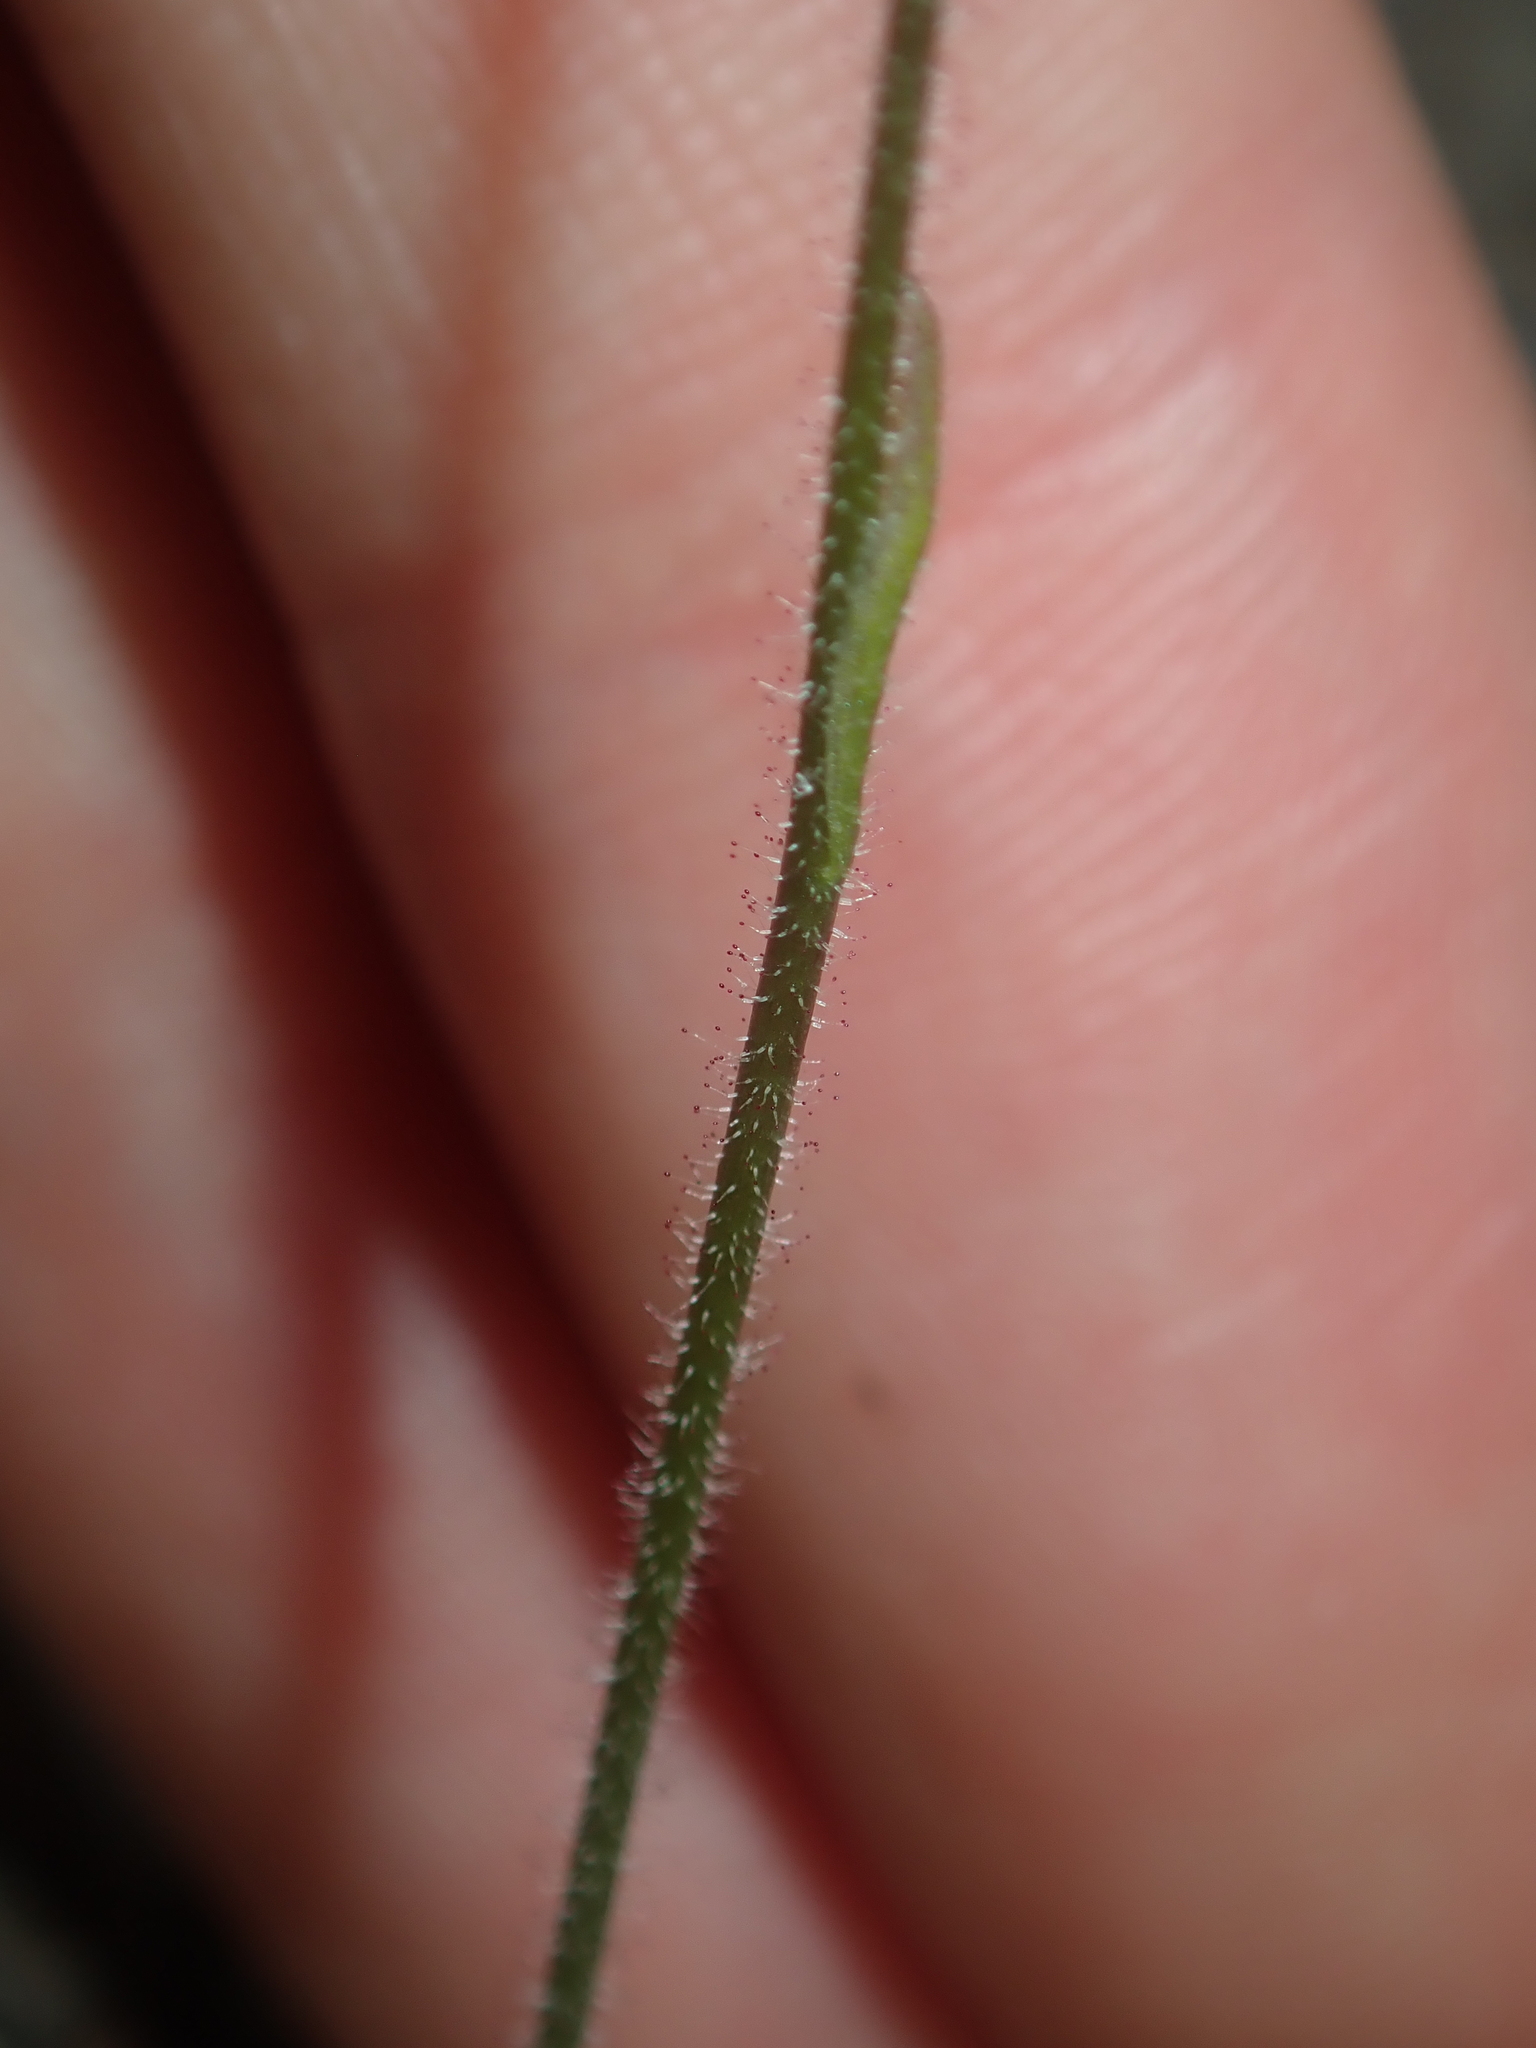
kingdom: Plantae
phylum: Tracheophyta
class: Liliopsida
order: Asparagales
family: Orchidaceae
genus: Caladenia
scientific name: Caladenia pachychila
